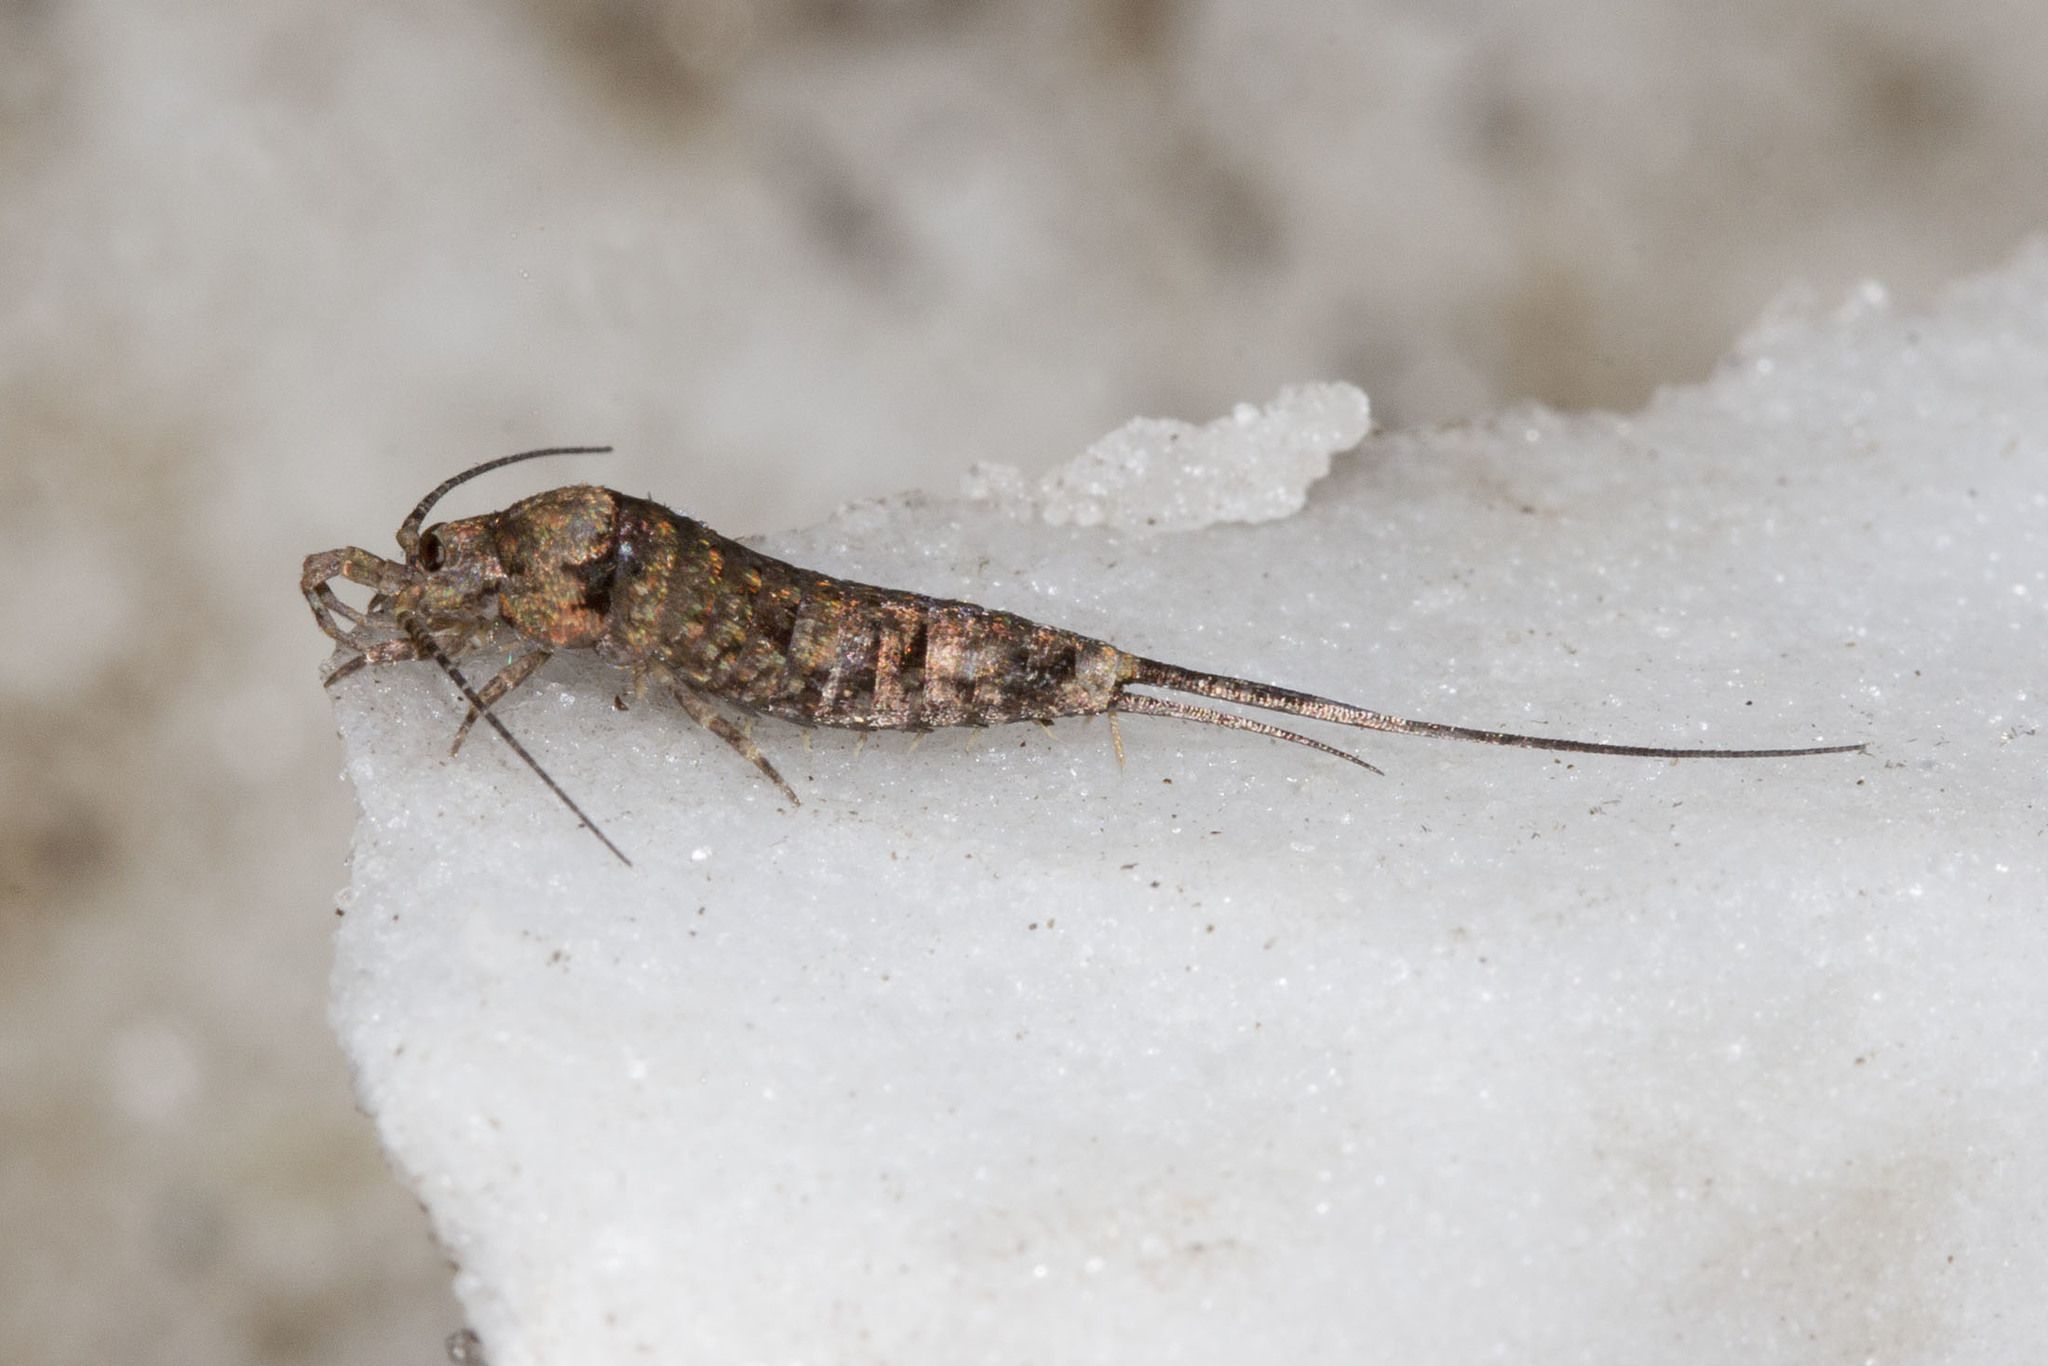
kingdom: Animalia
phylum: Arthropoda
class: Insecta
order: Archaeognatha
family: Machilidae
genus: Trigoniophthalmus
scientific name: Trigoniophthalmus alternatus
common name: Jumping bristletail
